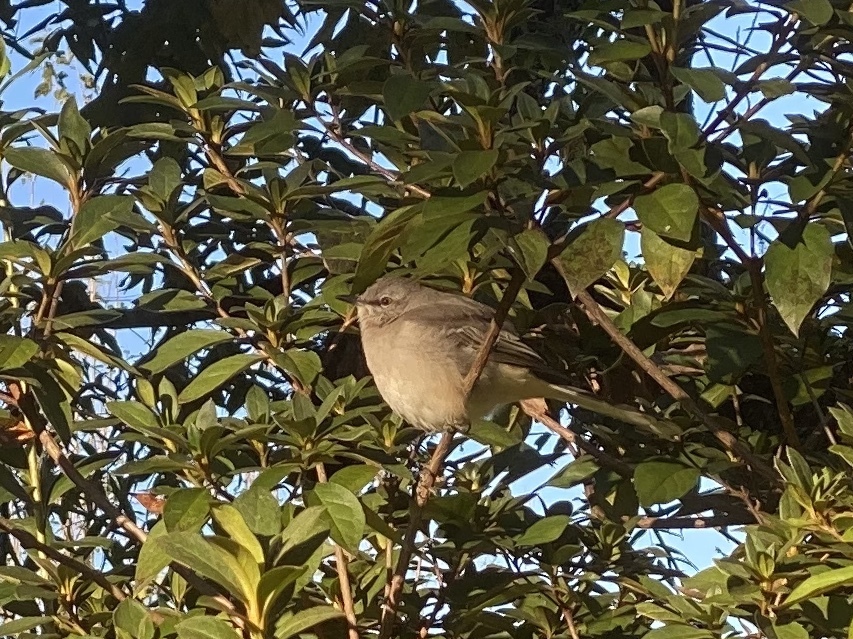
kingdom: Animalia
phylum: Chordata
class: Aves
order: Passeriformes
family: Mimidae
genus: Mimus
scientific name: Mimus polyglottos
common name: Northern mockingbird
